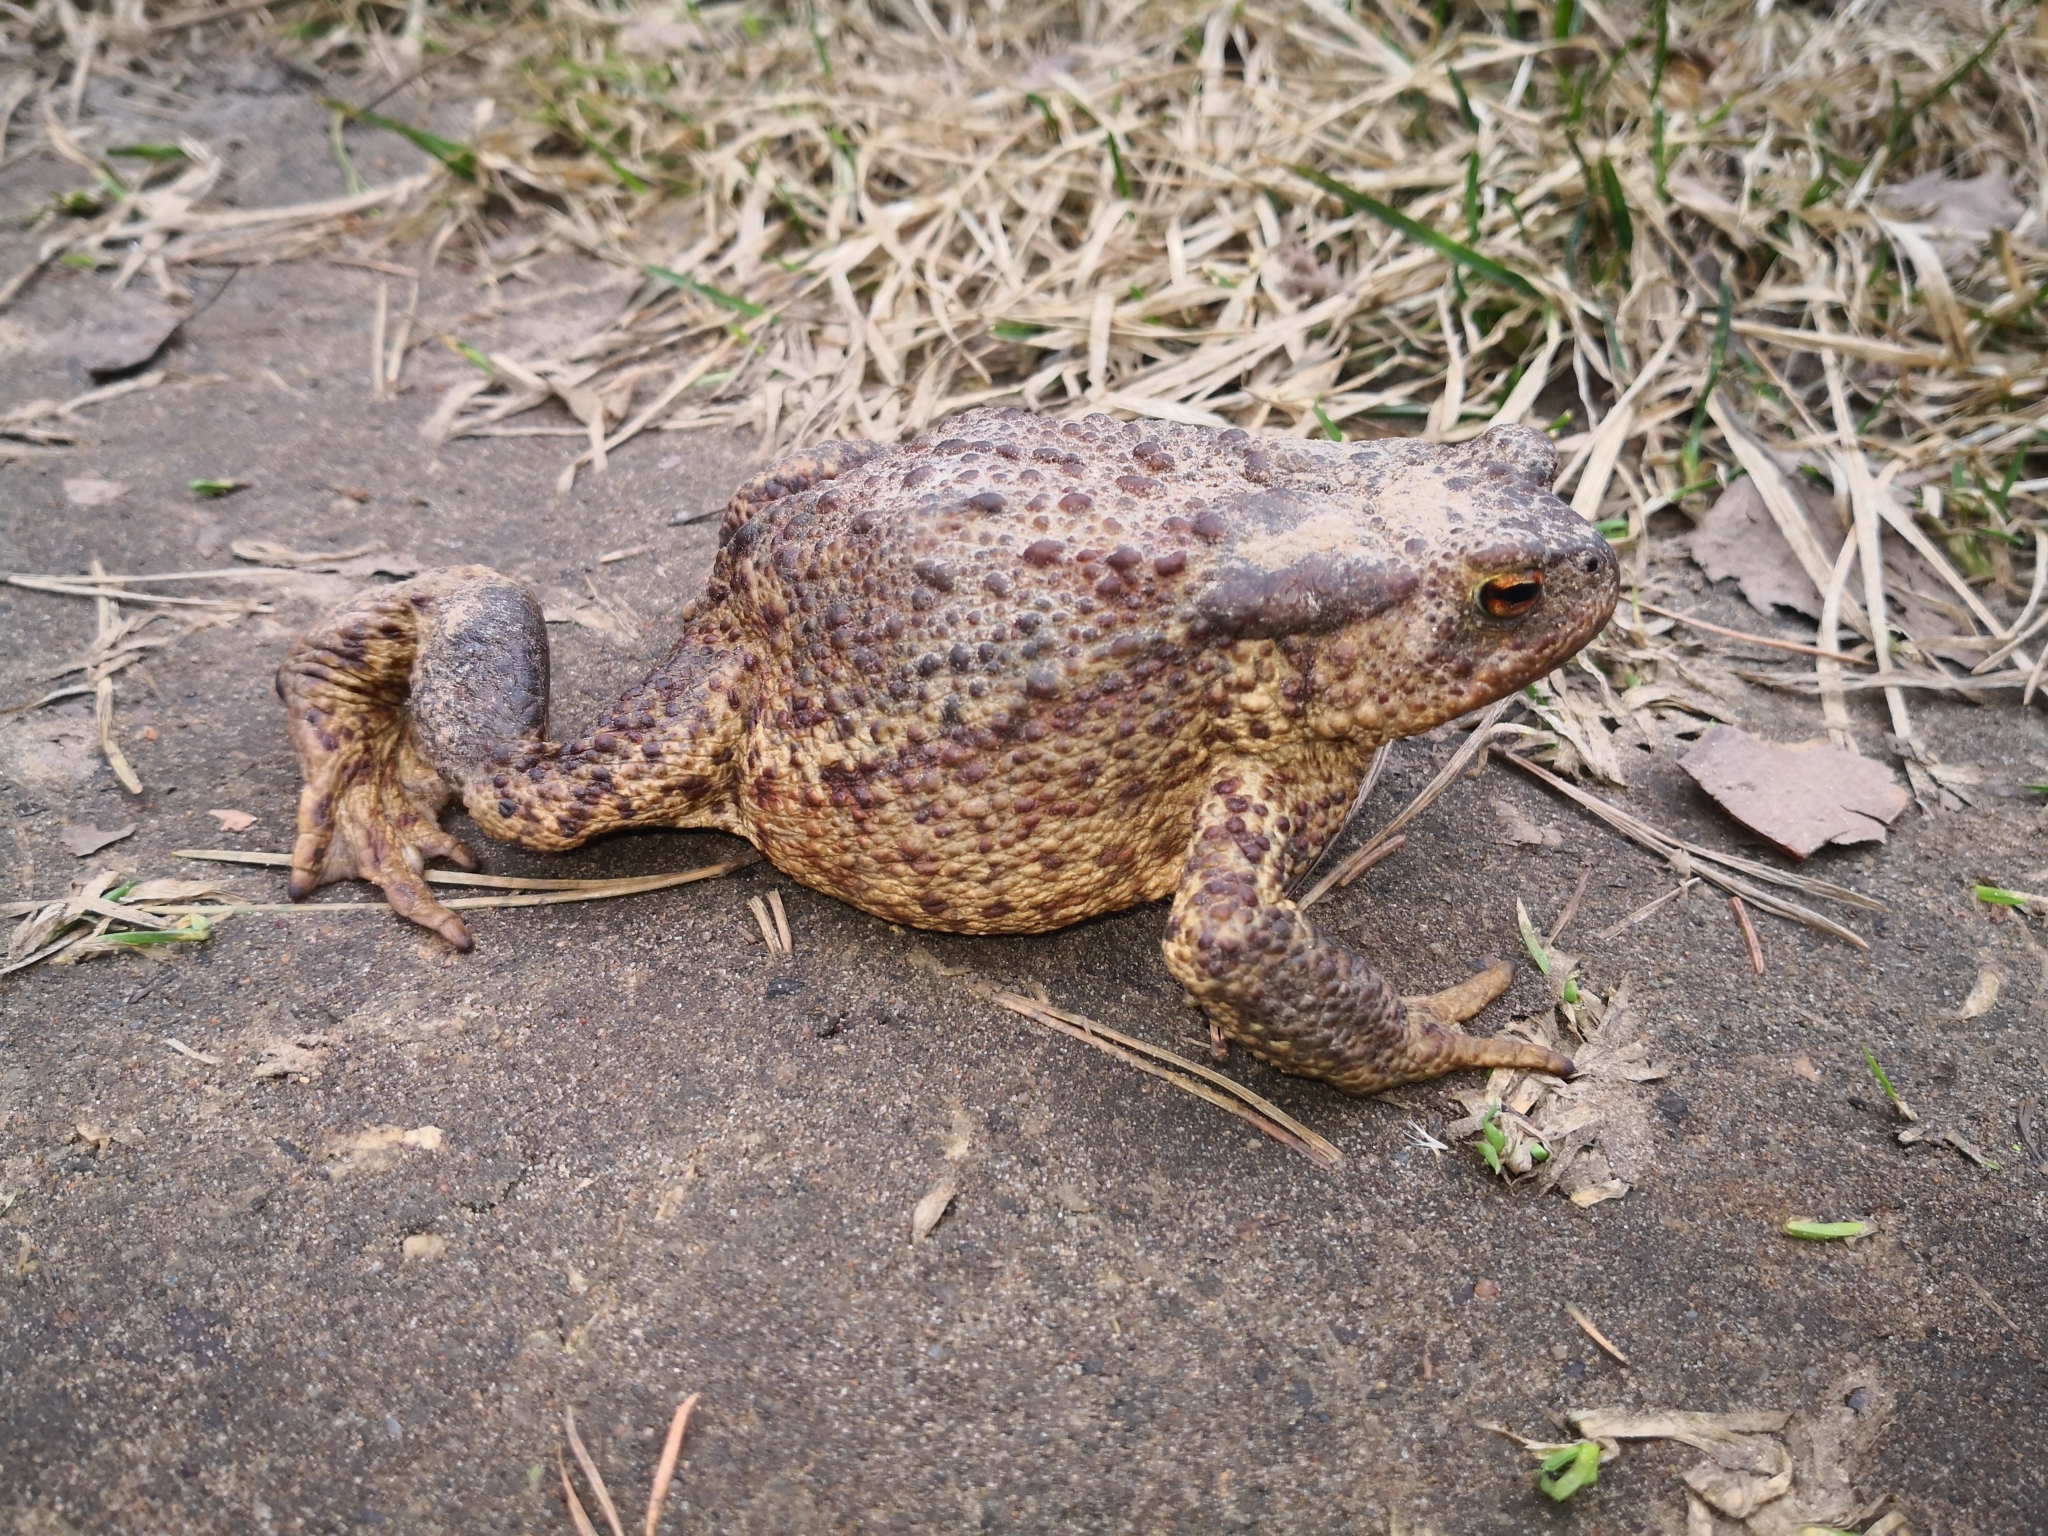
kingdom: Animalia
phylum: Chordata
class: Amphibia
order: Anura
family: Bufonidae
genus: Bufo
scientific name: Bufo bufo
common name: Common toad
